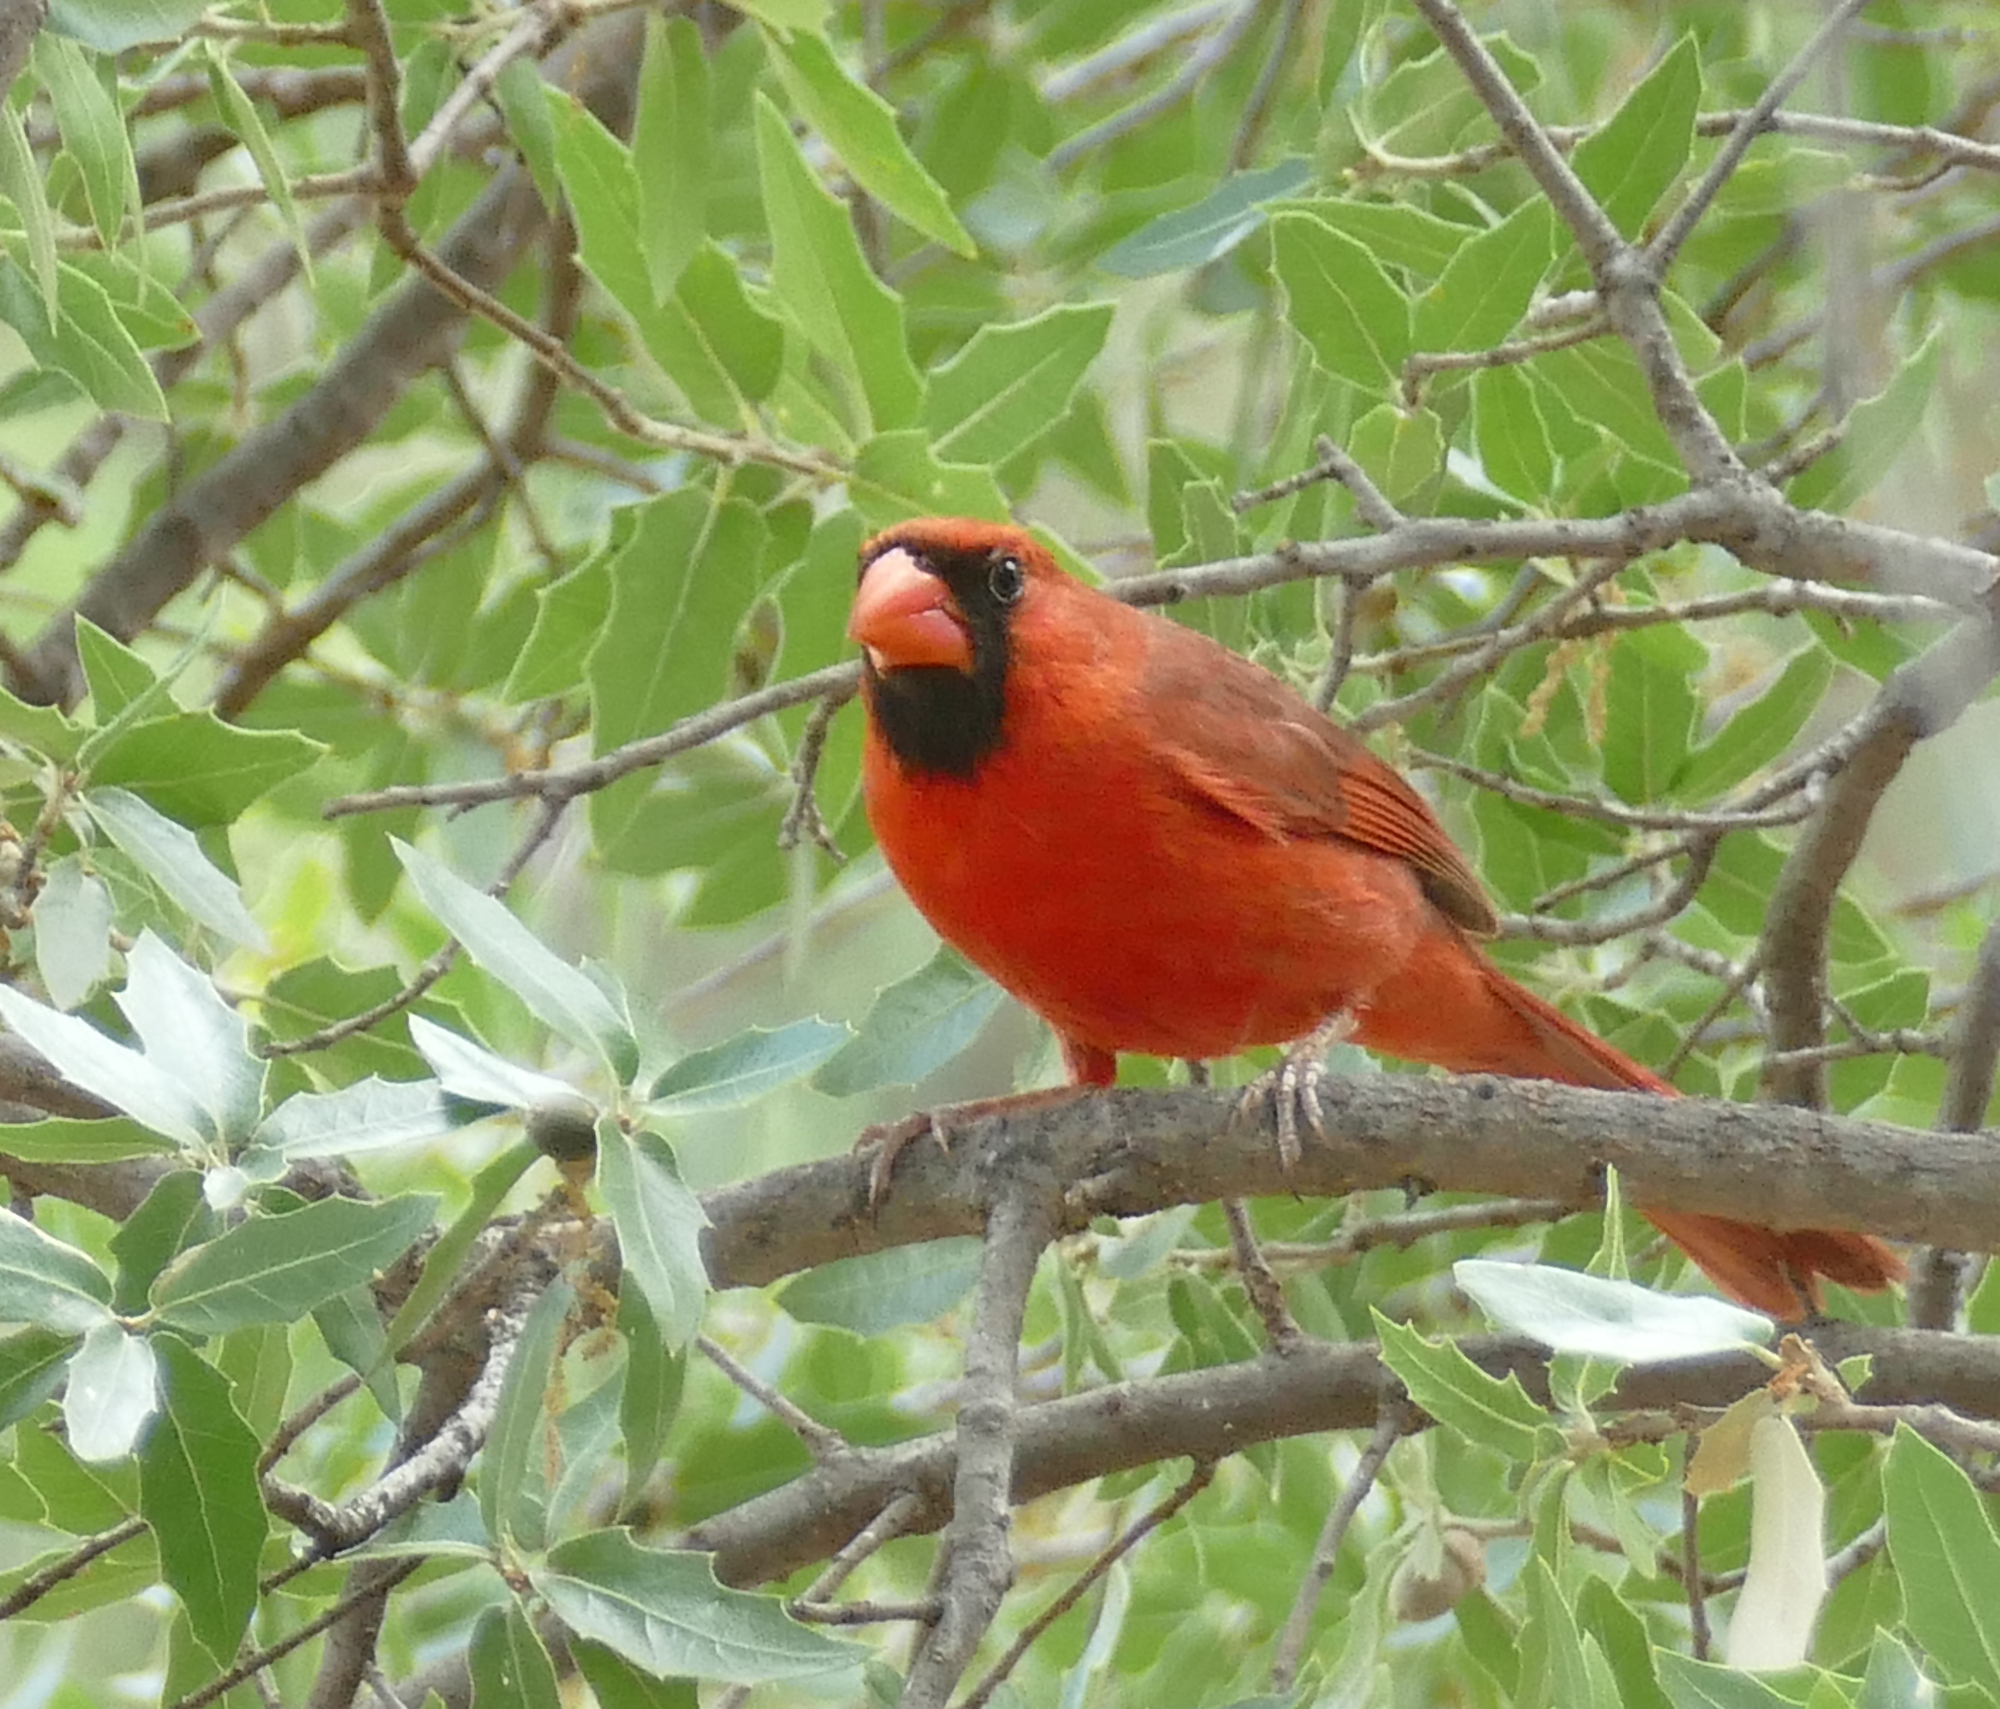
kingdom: Animalia
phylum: Chordata
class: Aves
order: Passeriformes
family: Cardinalidae
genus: Cardinalis
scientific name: Cardinalis cardinalis
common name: Northern cardinal
